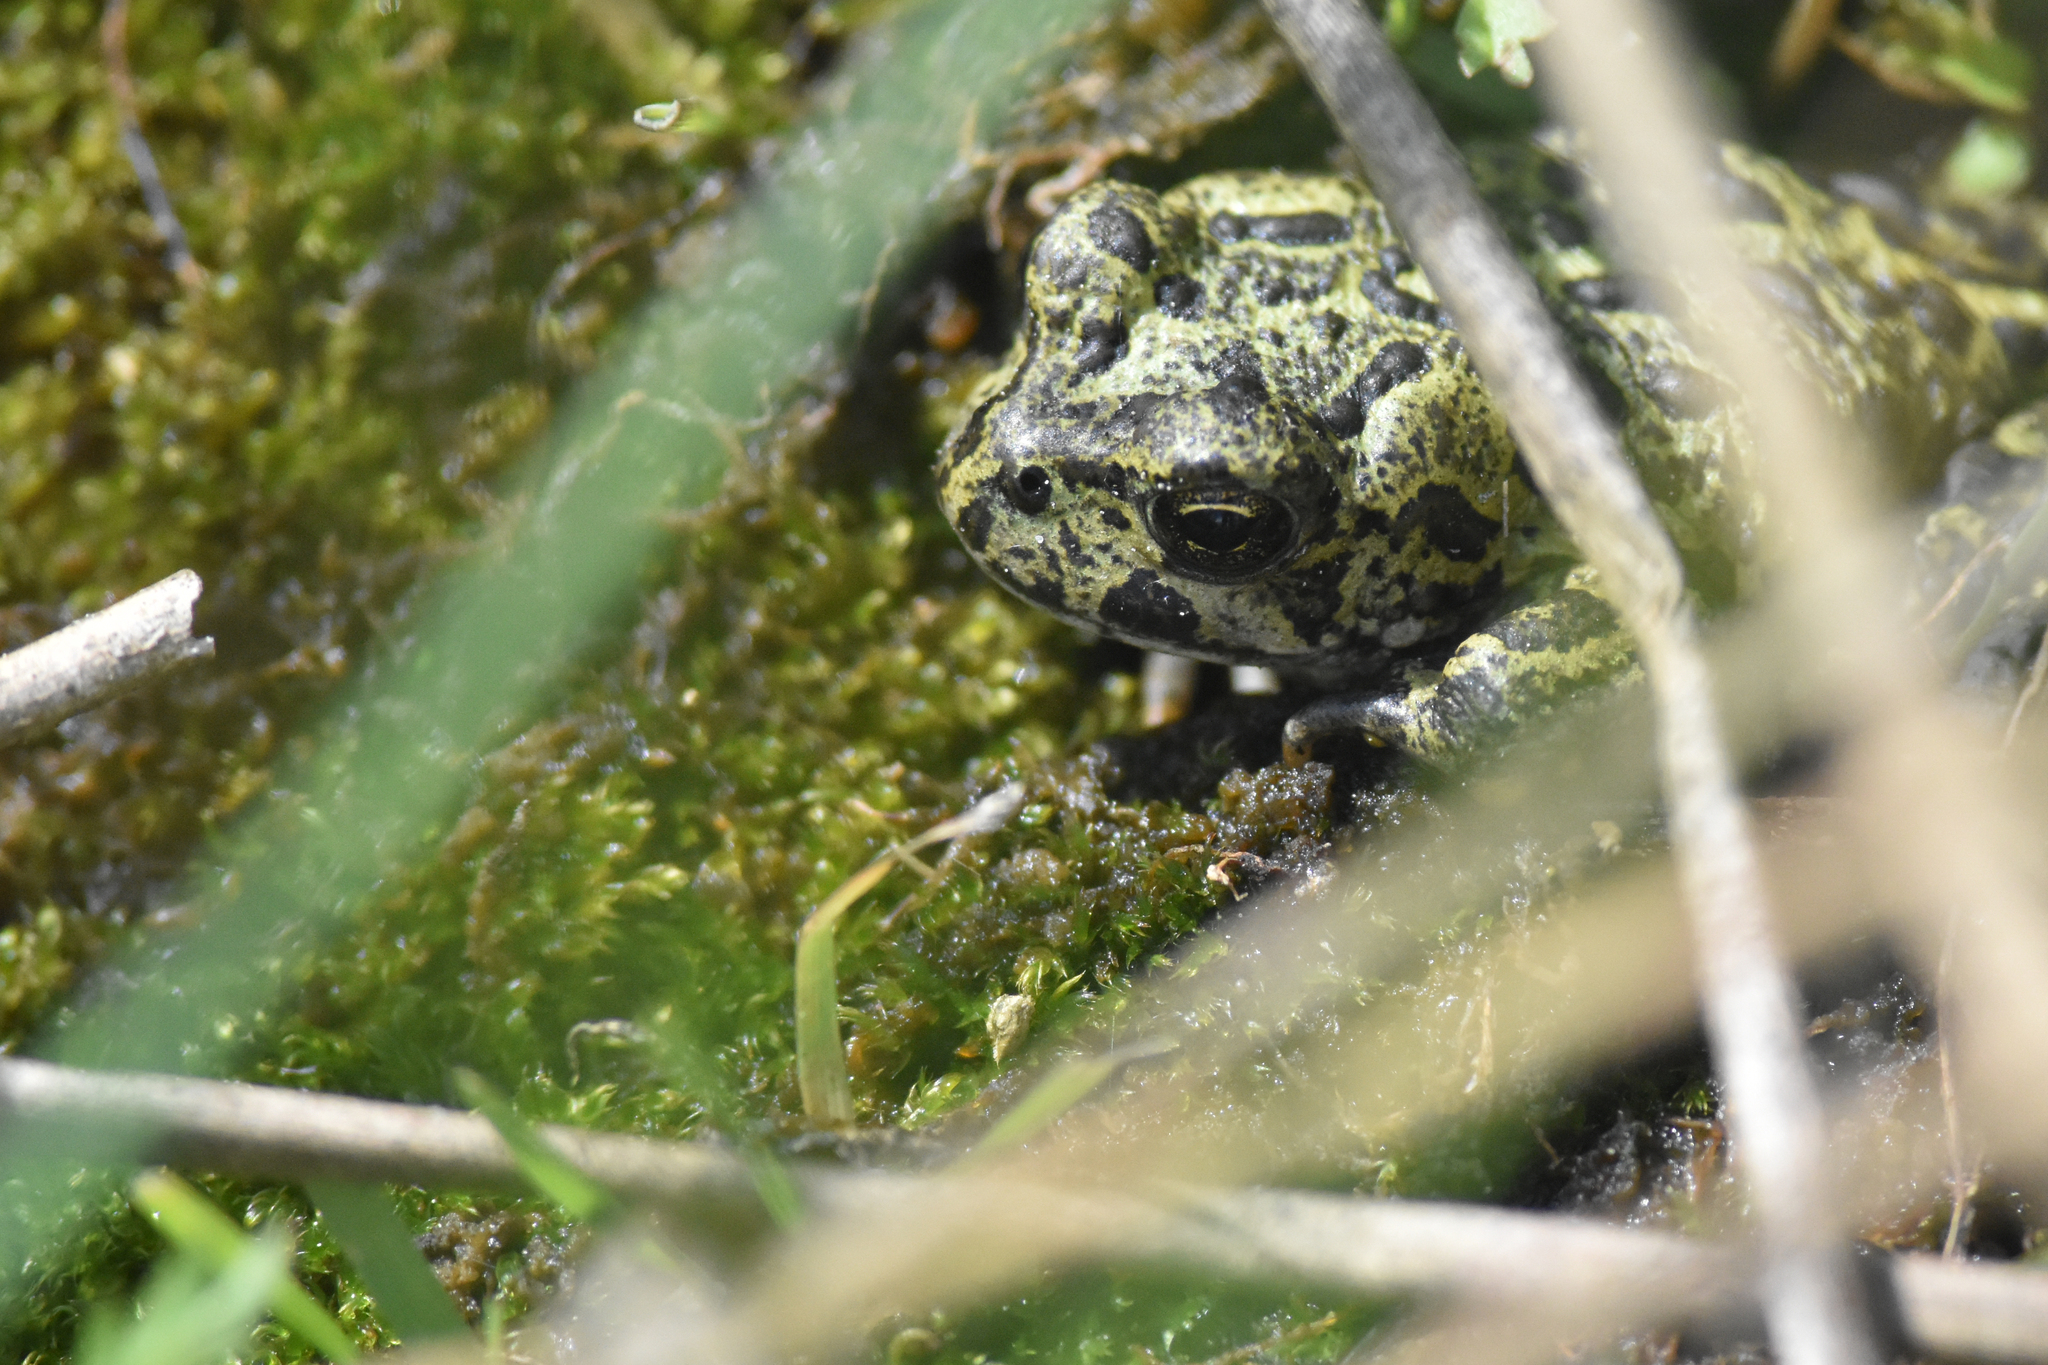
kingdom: Animalia
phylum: Chordata
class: Amphibia
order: Anura
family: Bufonidae
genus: Anaxyrus
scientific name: Anaxyrus boreas
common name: Western toad
